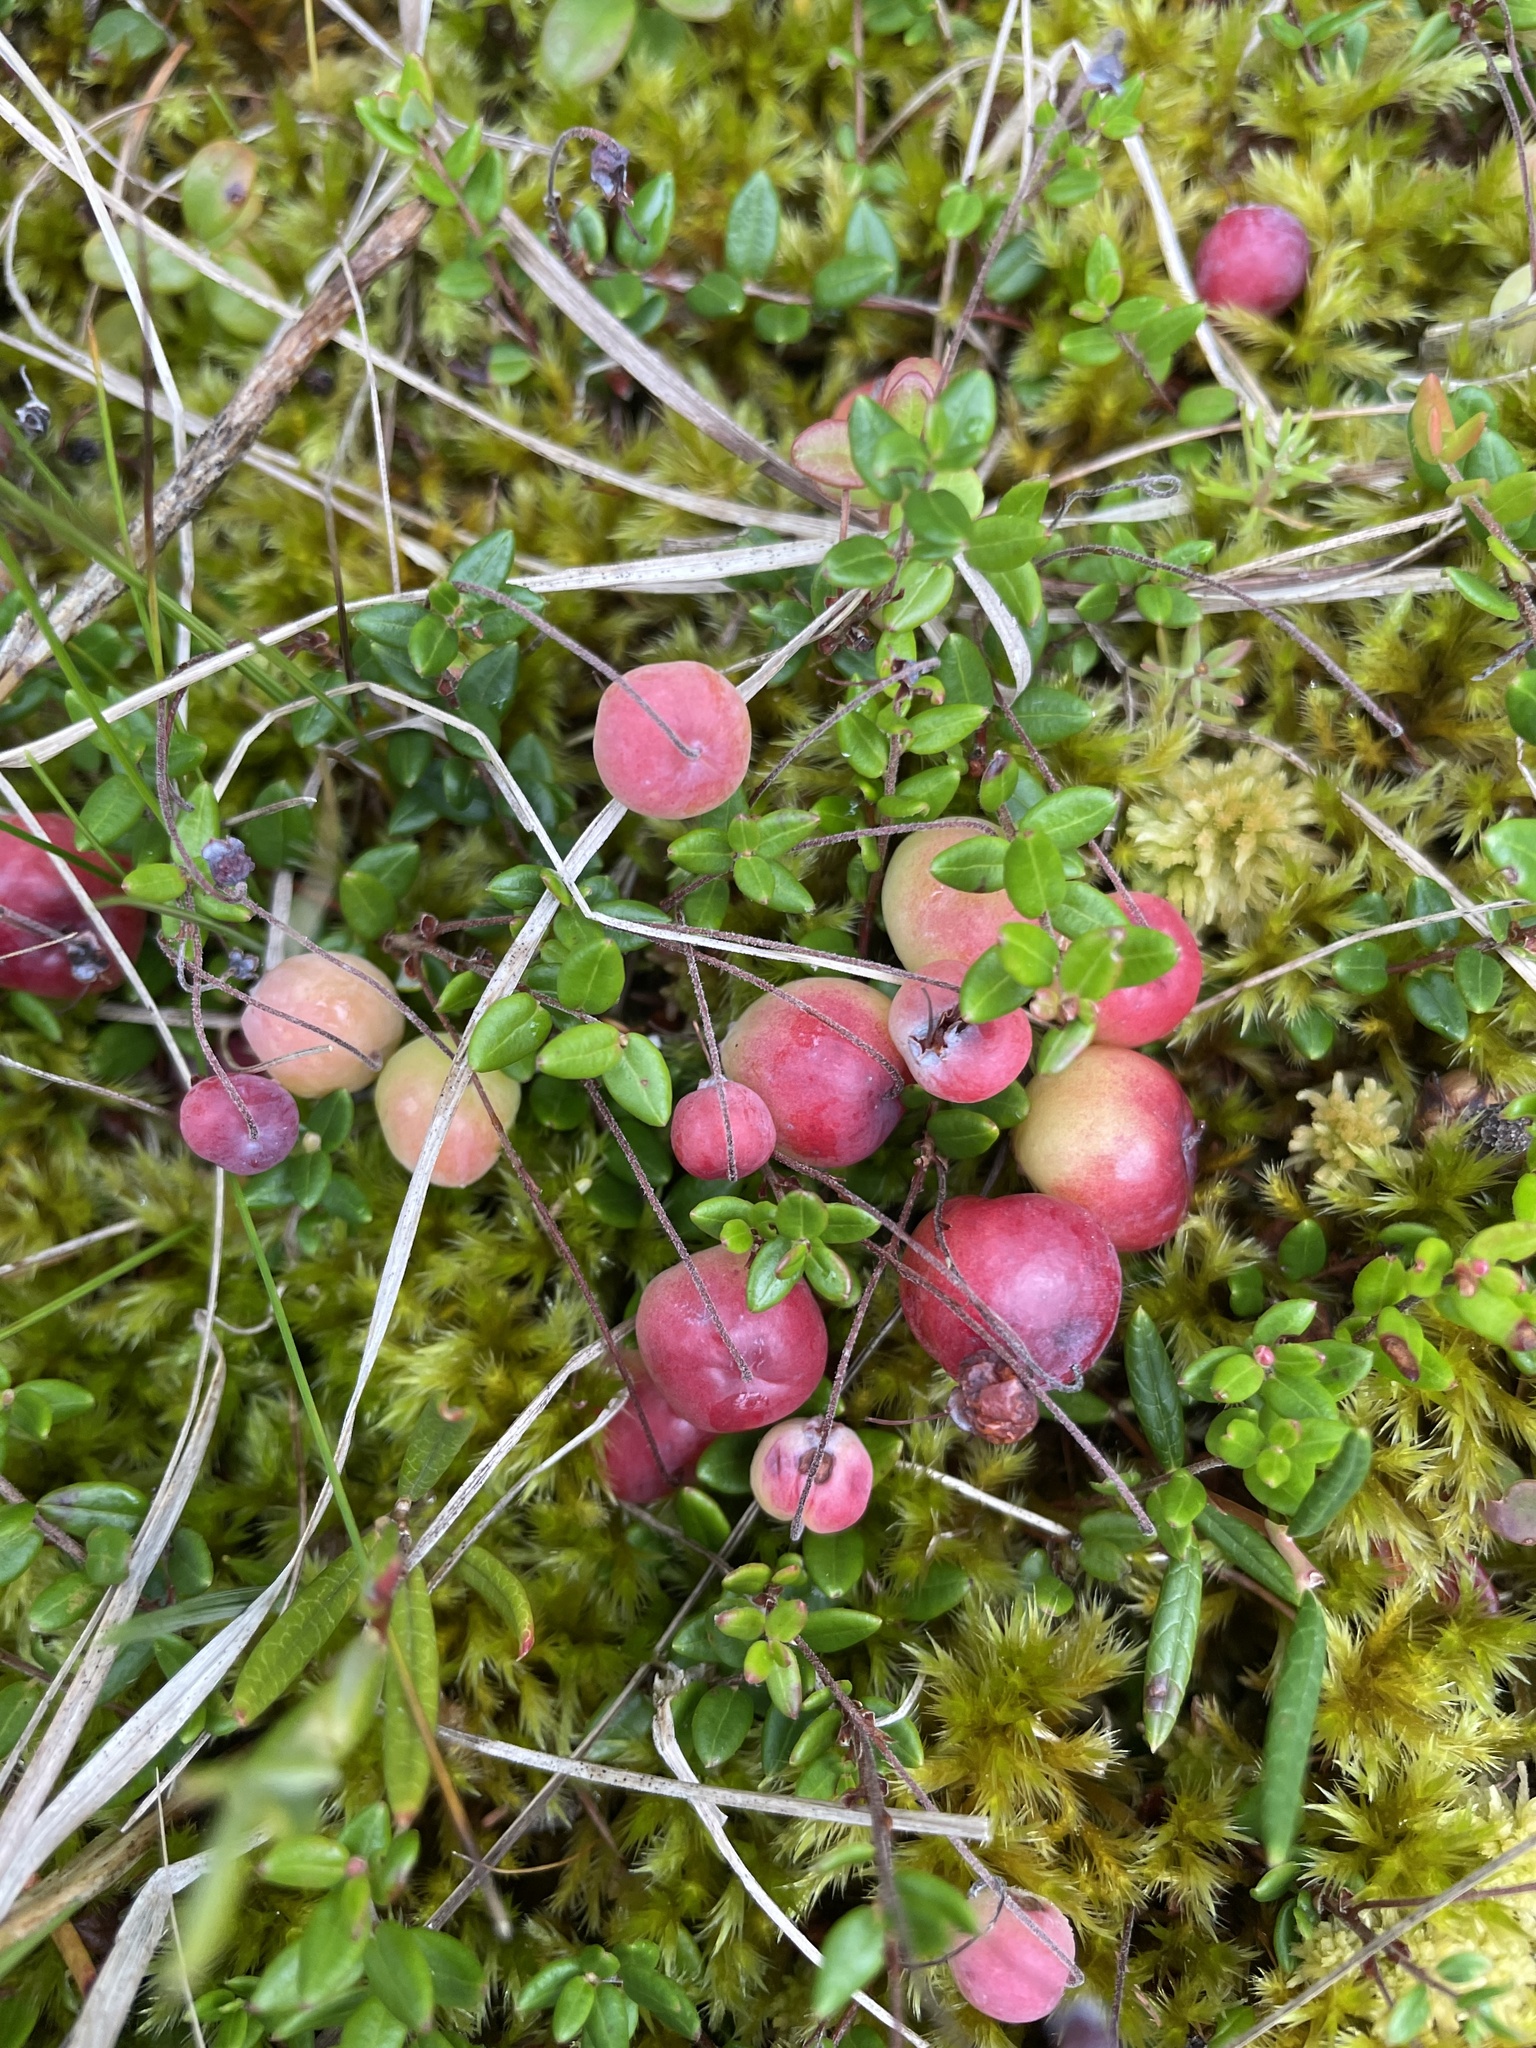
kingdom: Plantae
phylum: Tracheophyta
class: Magnoliopsida
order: Ericales
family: Ericaceae
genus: Vaccinium
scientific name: Vaccinium oxycoccos
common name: Cranberry
